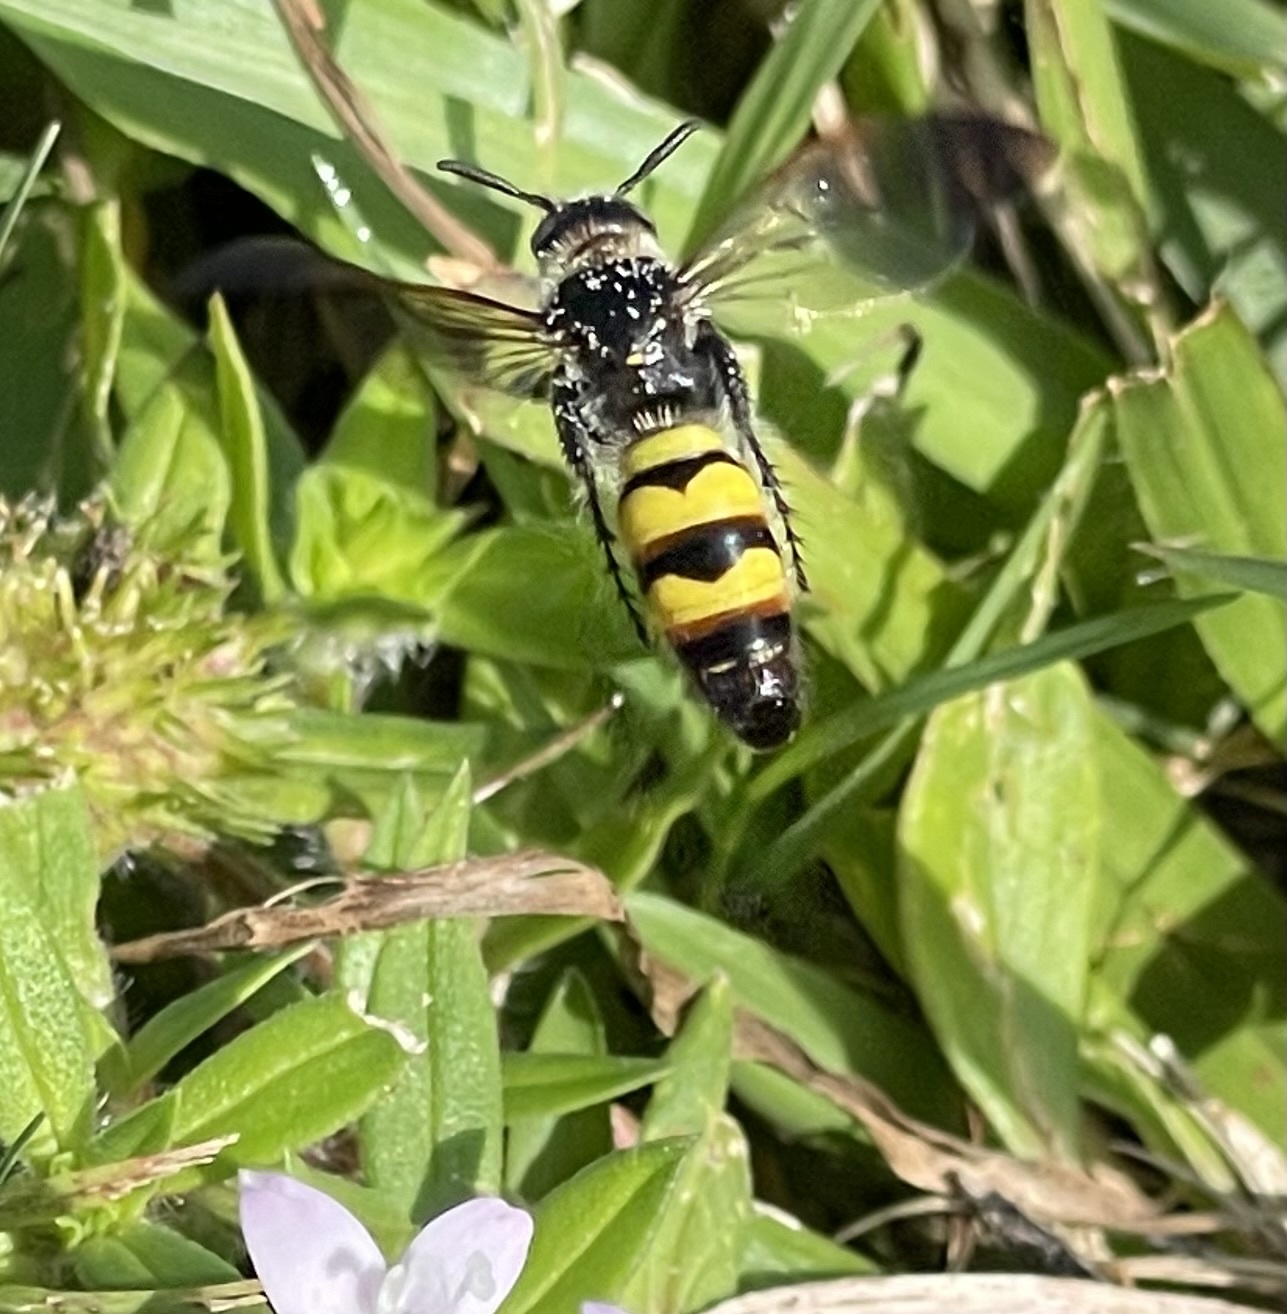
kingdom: Animalia
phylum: Arthropoda
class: Insecta
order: Hymenoptera
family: Scoliidae
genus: Dielis
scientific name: Dielis
